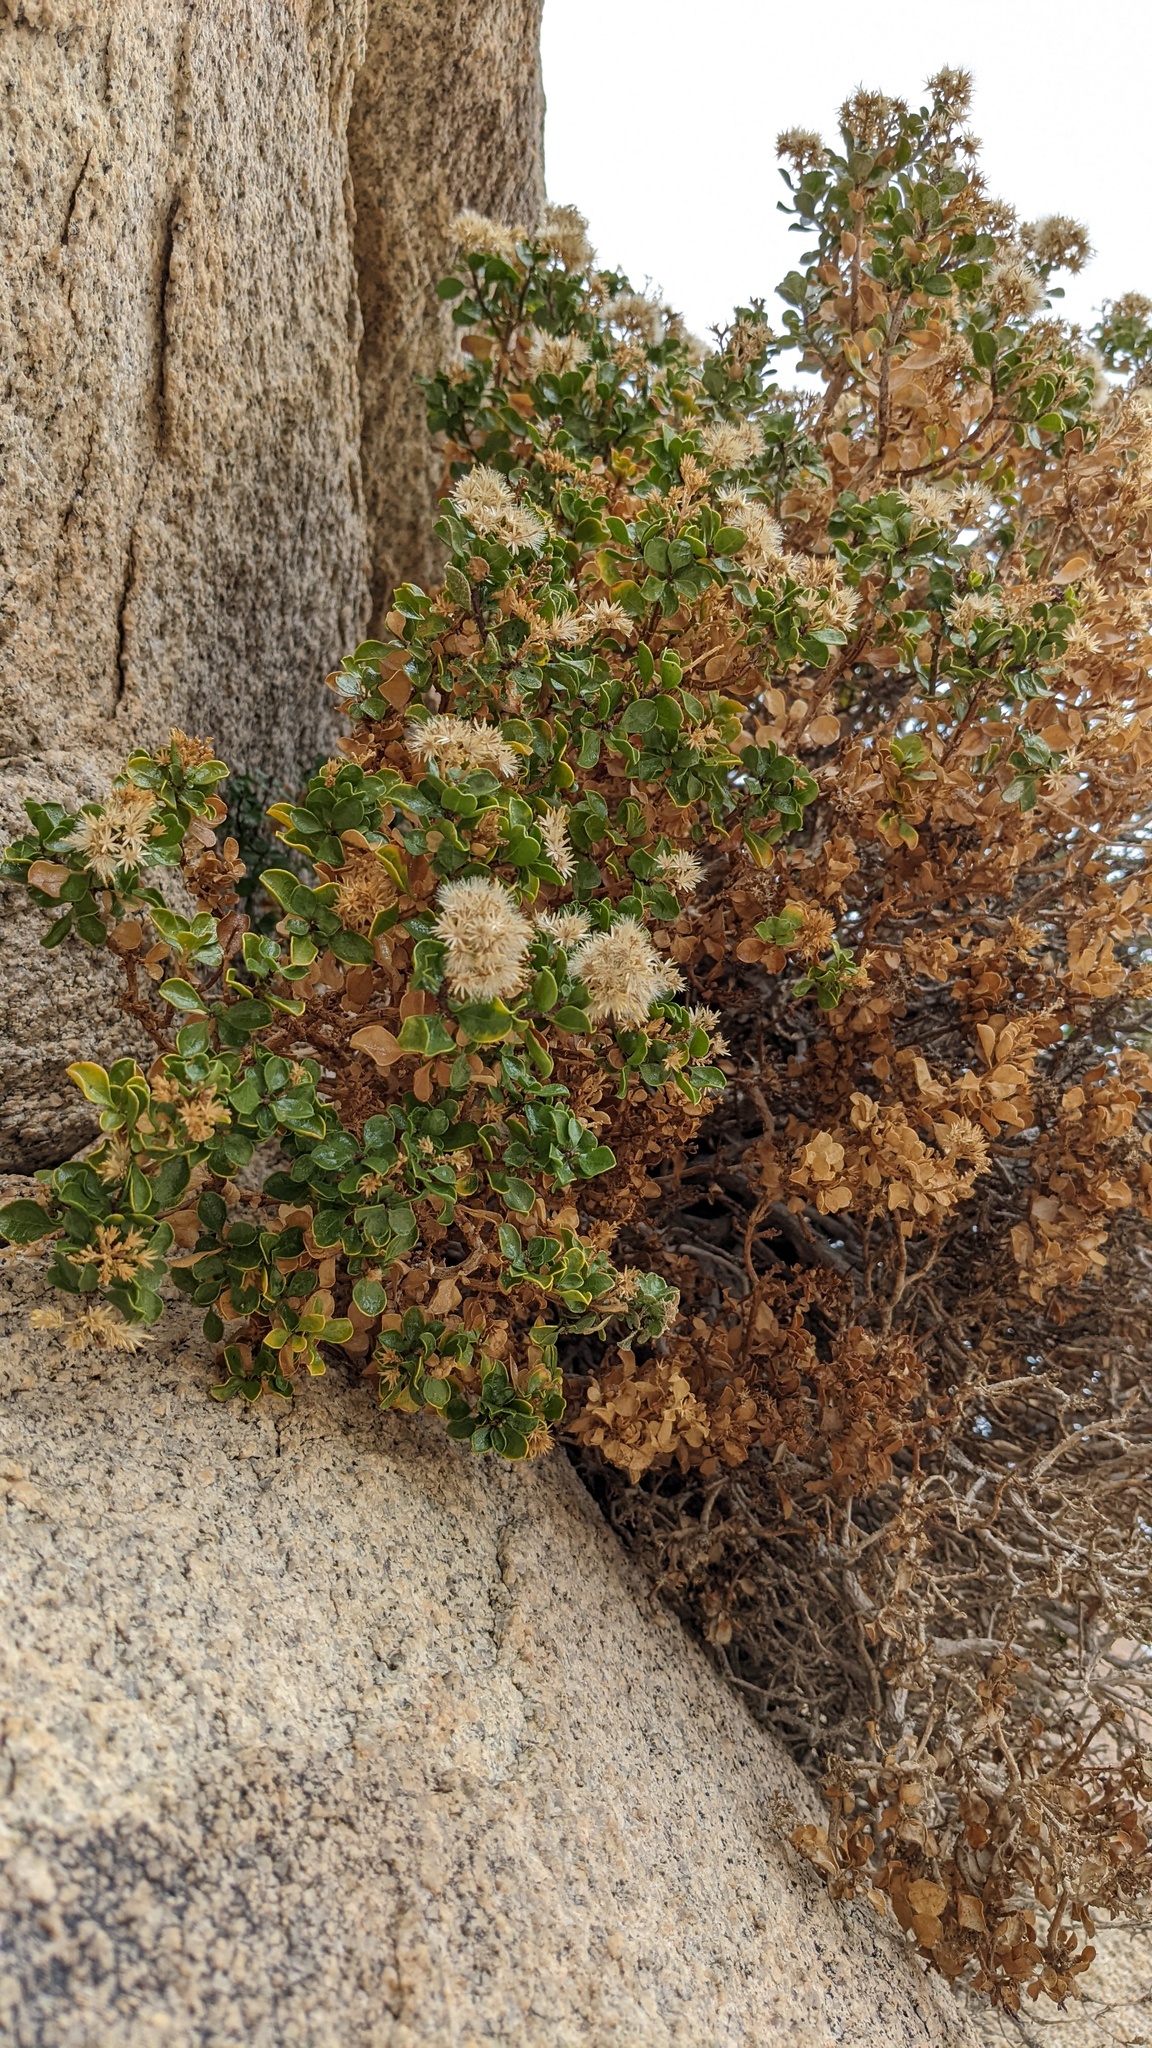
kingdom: Plantae
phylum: Tracheophyta
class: Magnoliopsida
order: Asterales
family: Asteraceae
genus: Ericameria
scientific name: Ericameria cuneata
